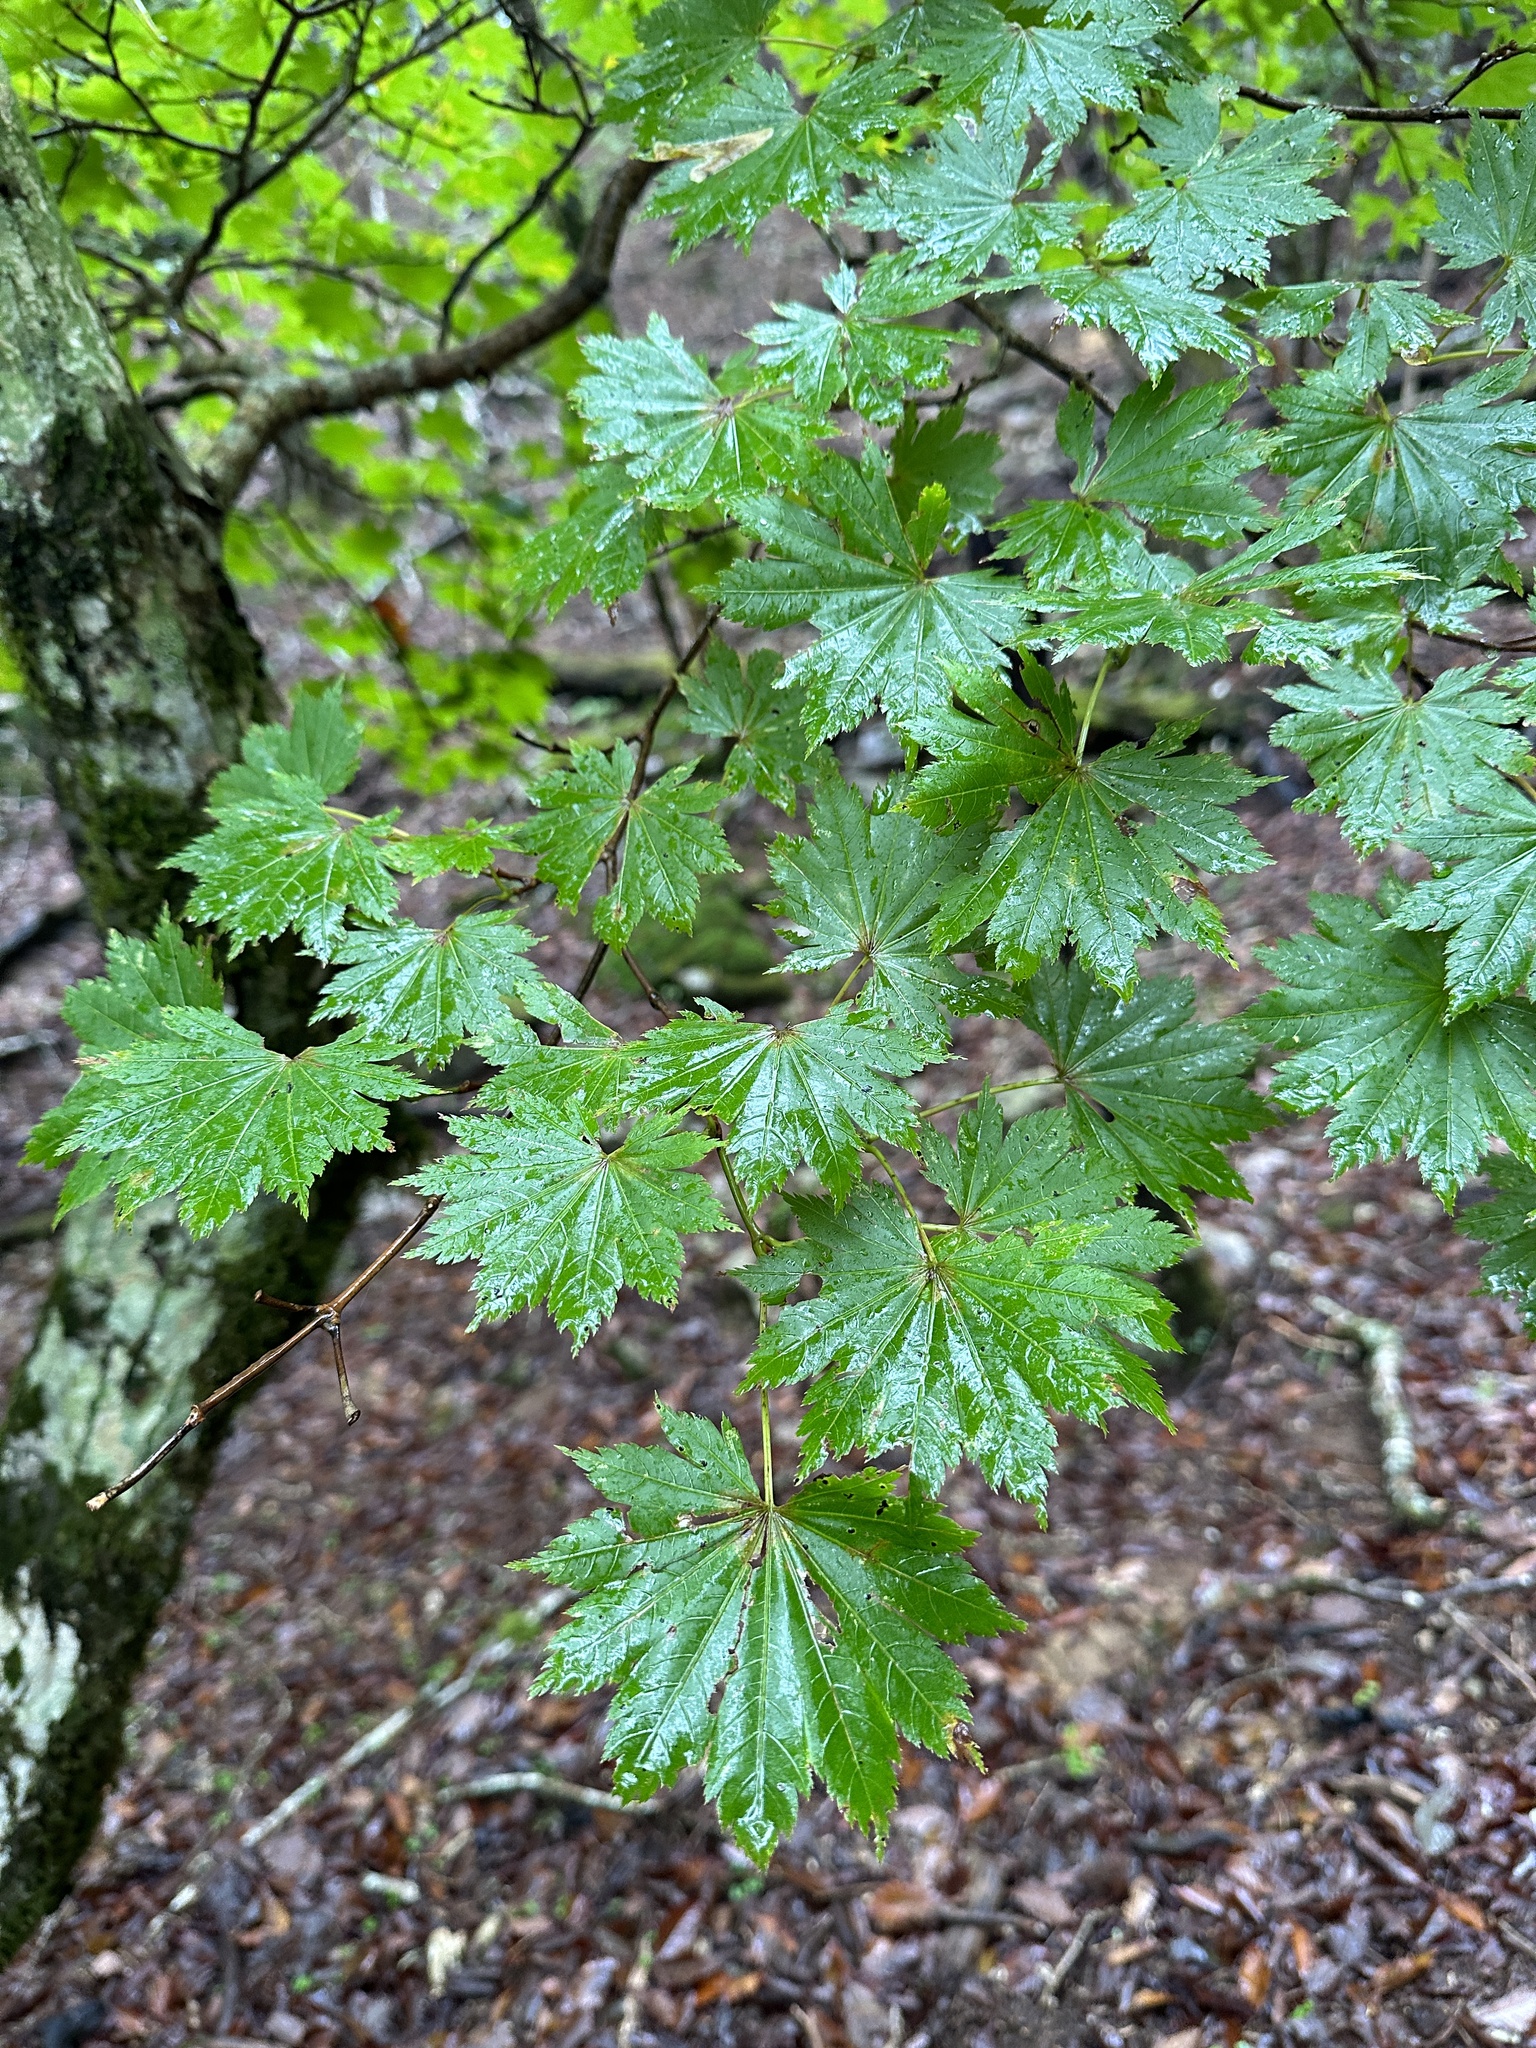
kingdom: Plantae
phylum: Tracheophyta
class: Magnoliopsida
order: Sapindales
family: Sapindaceae
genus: Acer
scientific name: Acer shirasawanum
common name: Full moon maple
